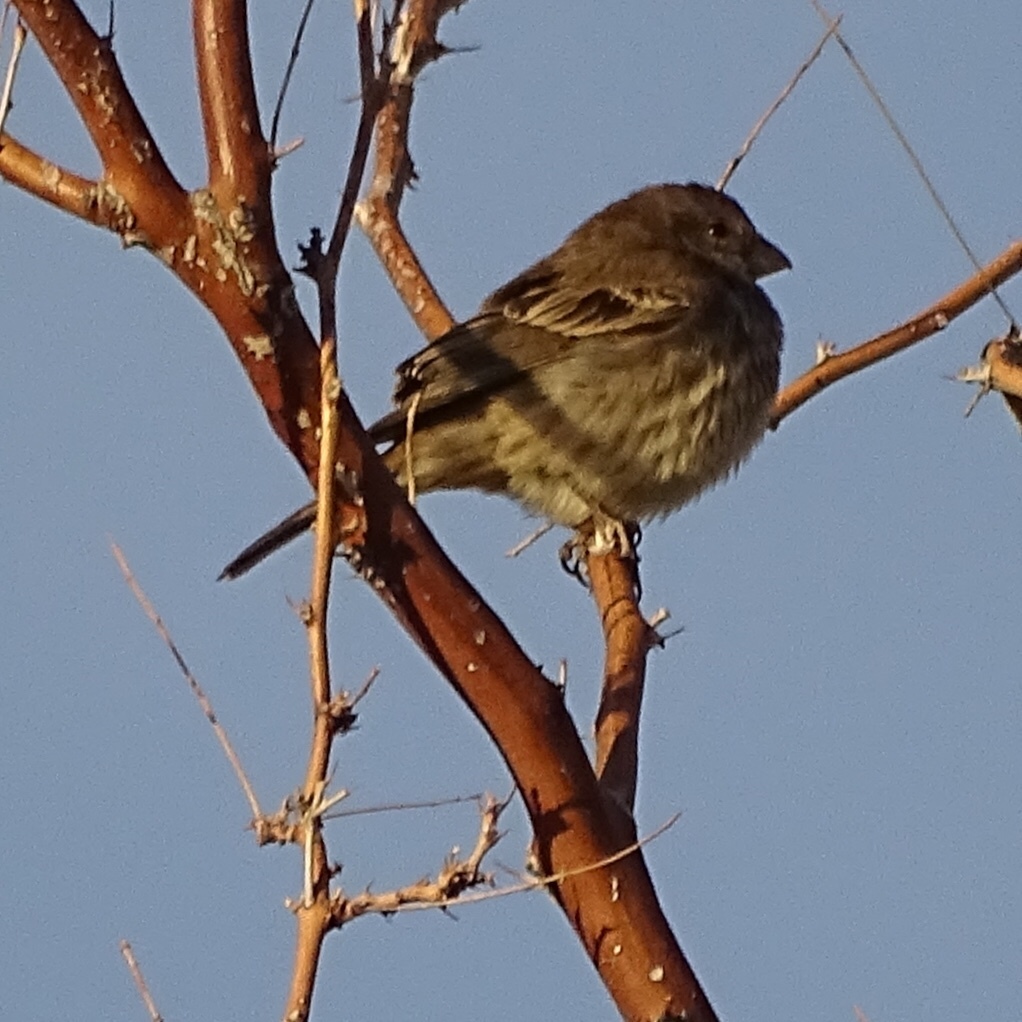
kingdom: Animalia
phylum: Chordata
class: Aves
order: Passeriformes
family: Fringillidae
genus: Haemorhous
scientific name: Haemorhous mexicanus
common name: House finch
